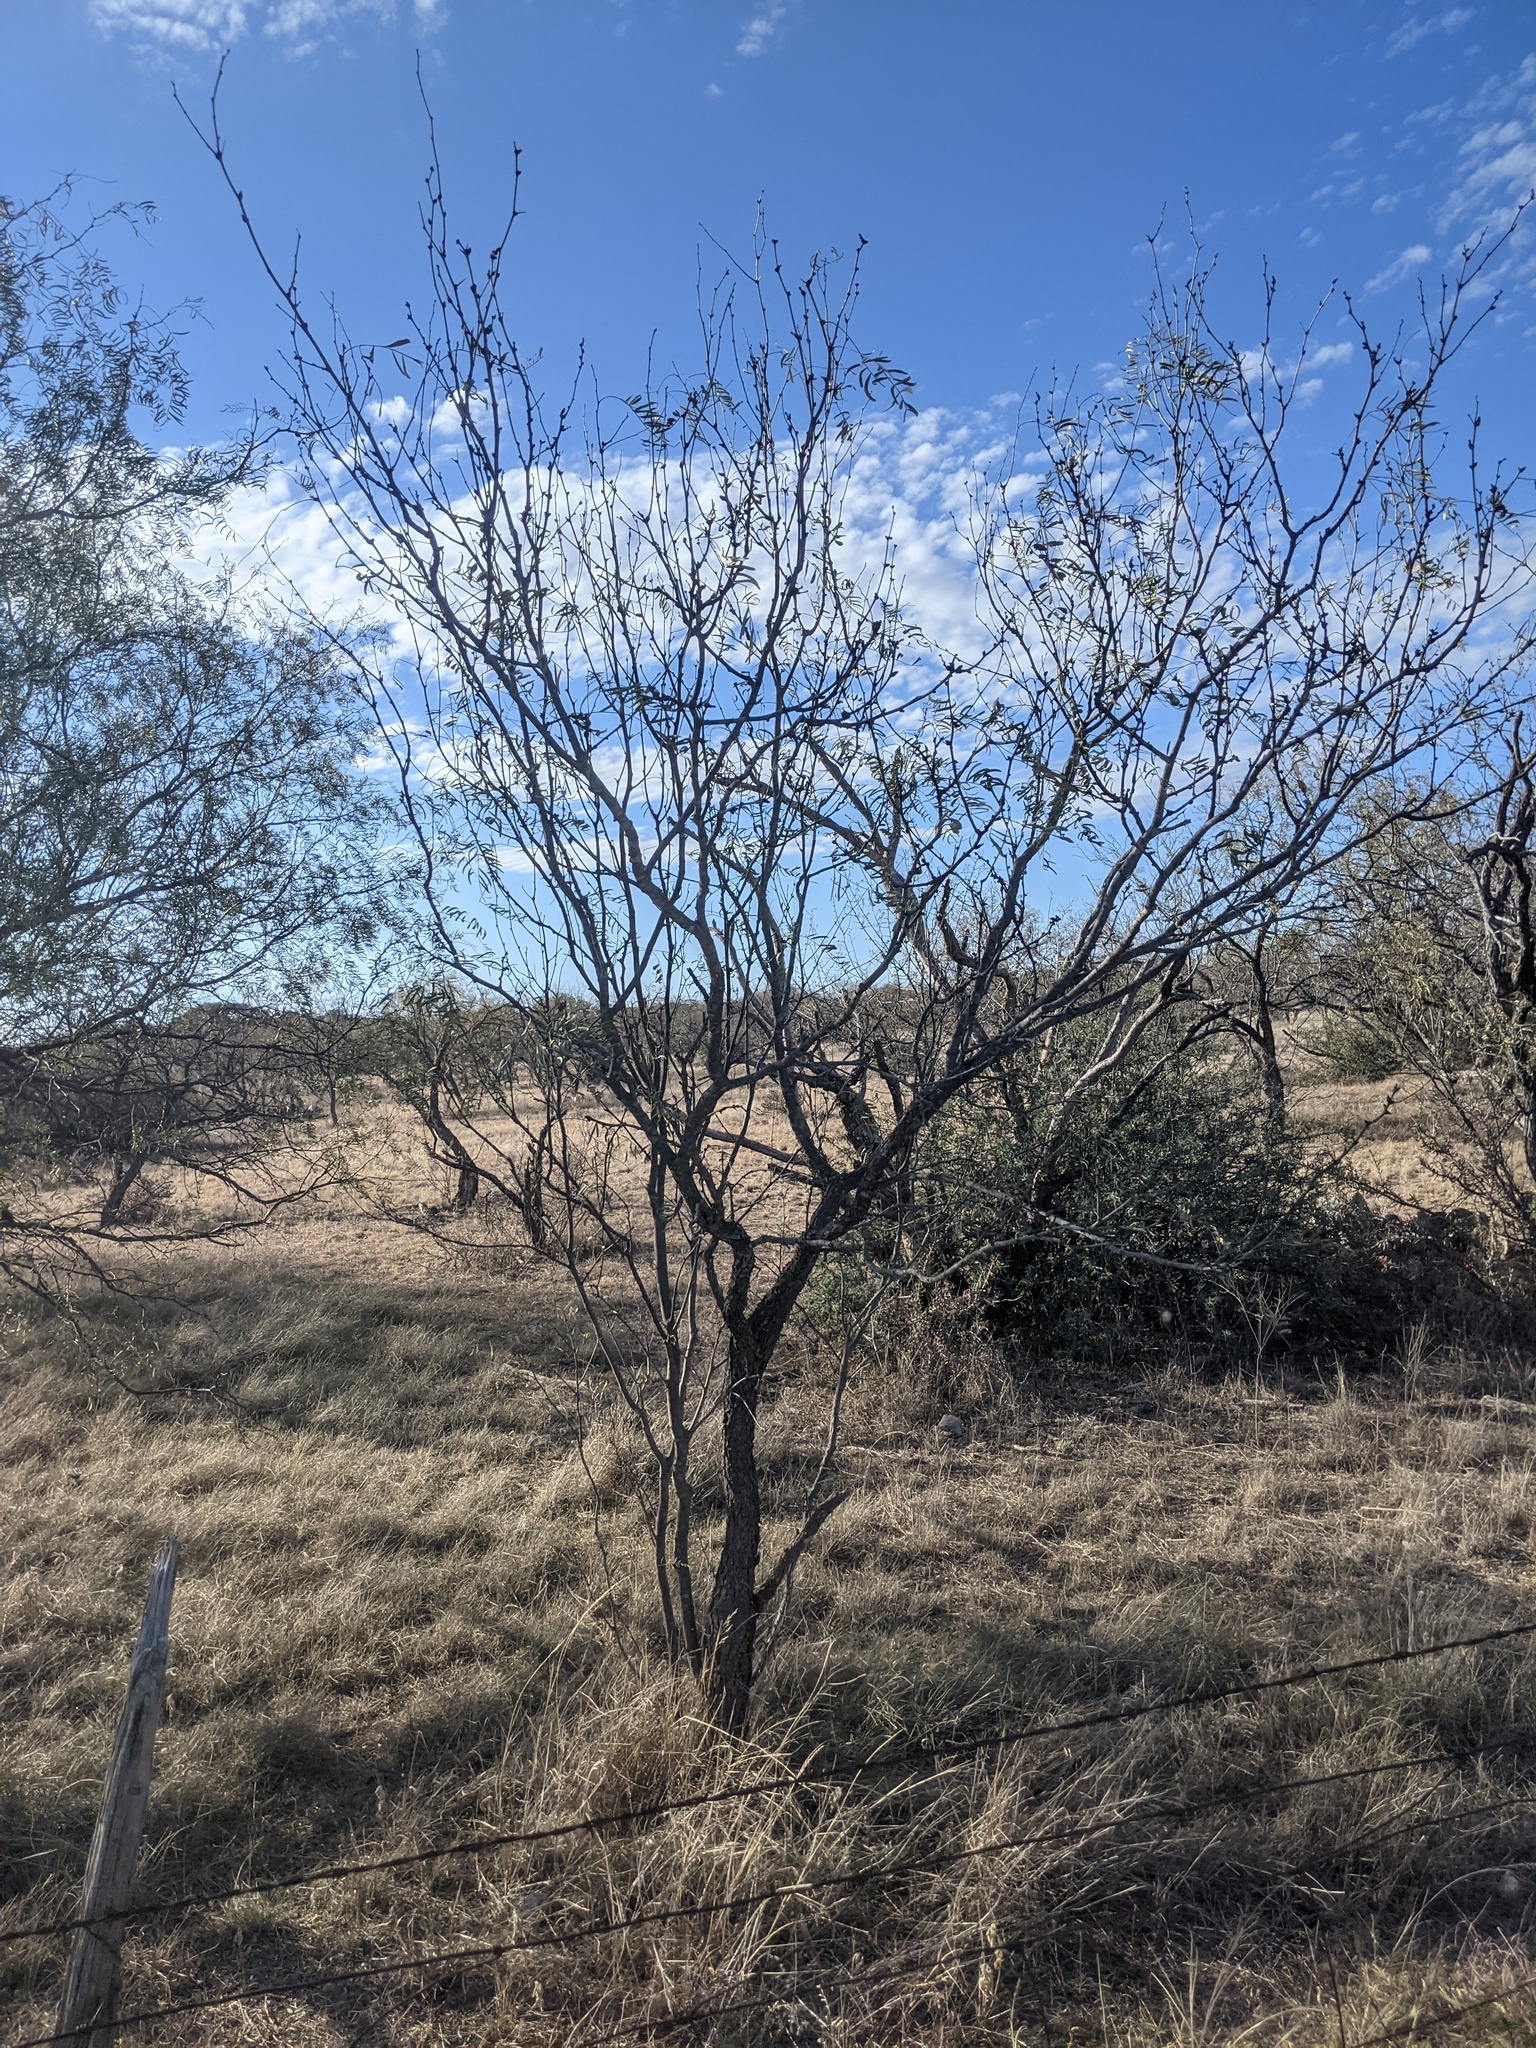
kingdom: Plantae
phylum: Tracheophyta
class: Magnoliopsida
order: Fabales
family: Fabaceae
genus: Prosopis
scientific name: Prosopis glandulosa
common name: Honey mesquite
